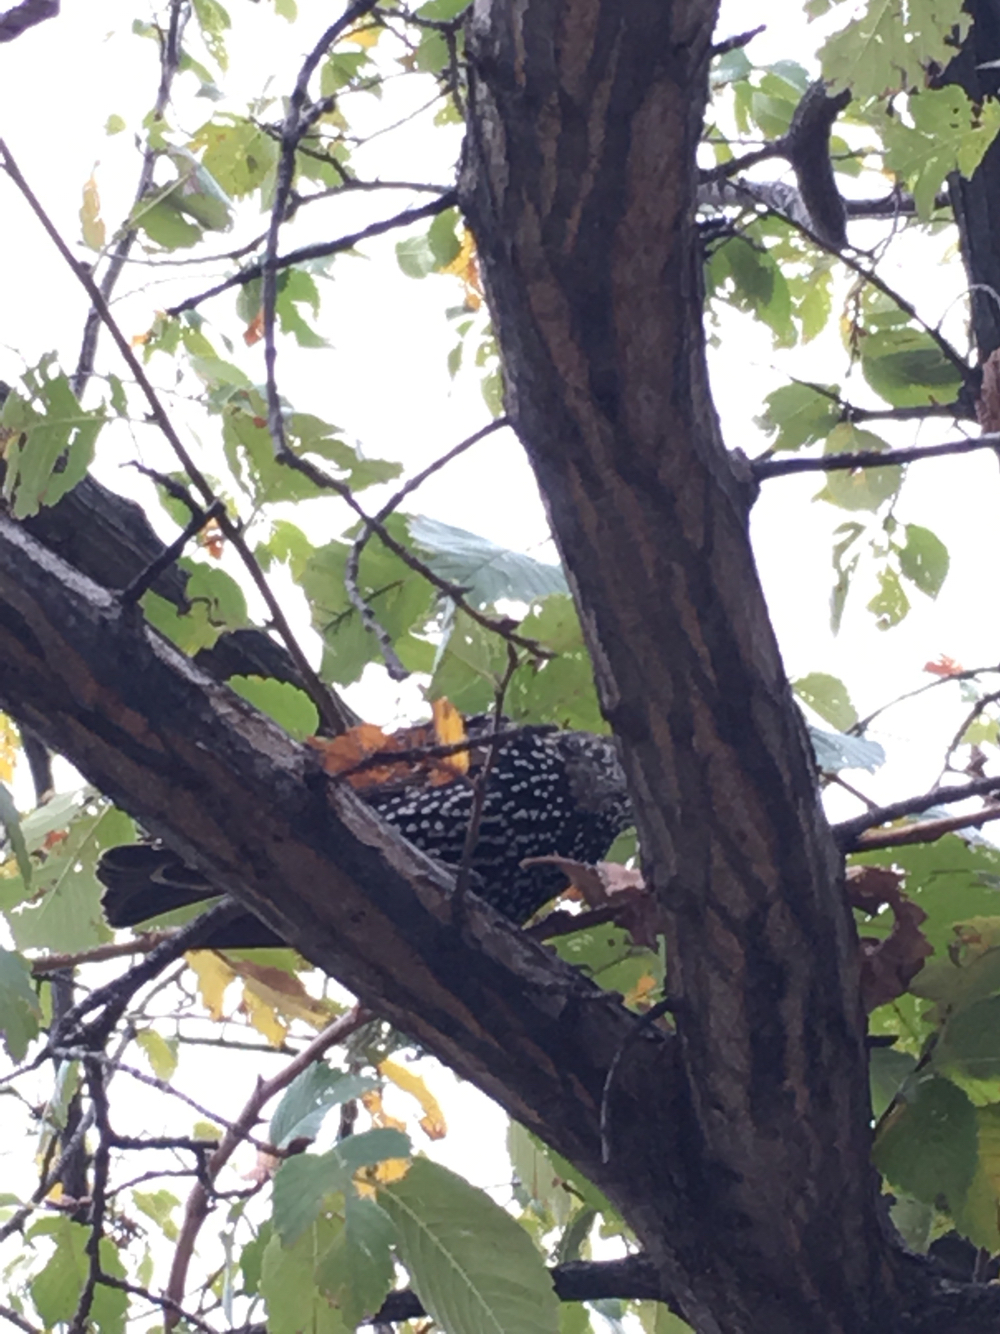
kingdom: Animalia
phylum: Chordata
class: Aves
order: Passeriformes
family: Sturnidae
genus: Sturnus
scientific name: Sturnus vulgaris
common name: Common starling
